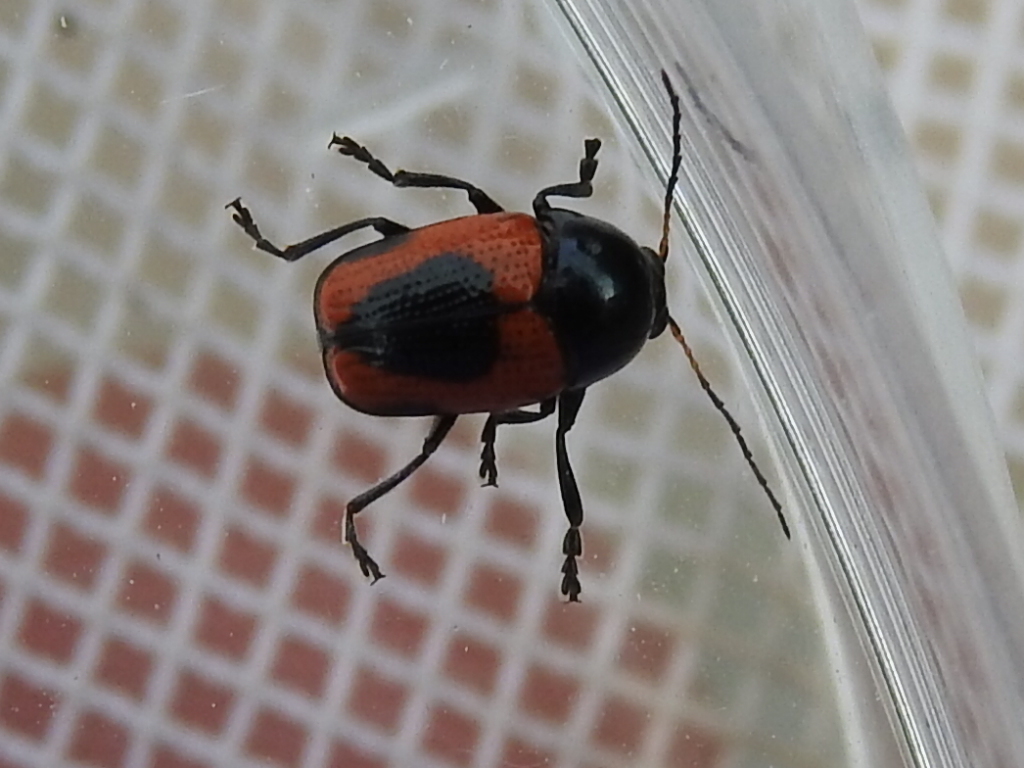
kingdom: Animalia
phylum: Arthropoda
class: Insecta
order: Coleoptera
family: Chrysomelidae
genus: Cryptocephalus
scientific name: Cryptocephalus notatus
